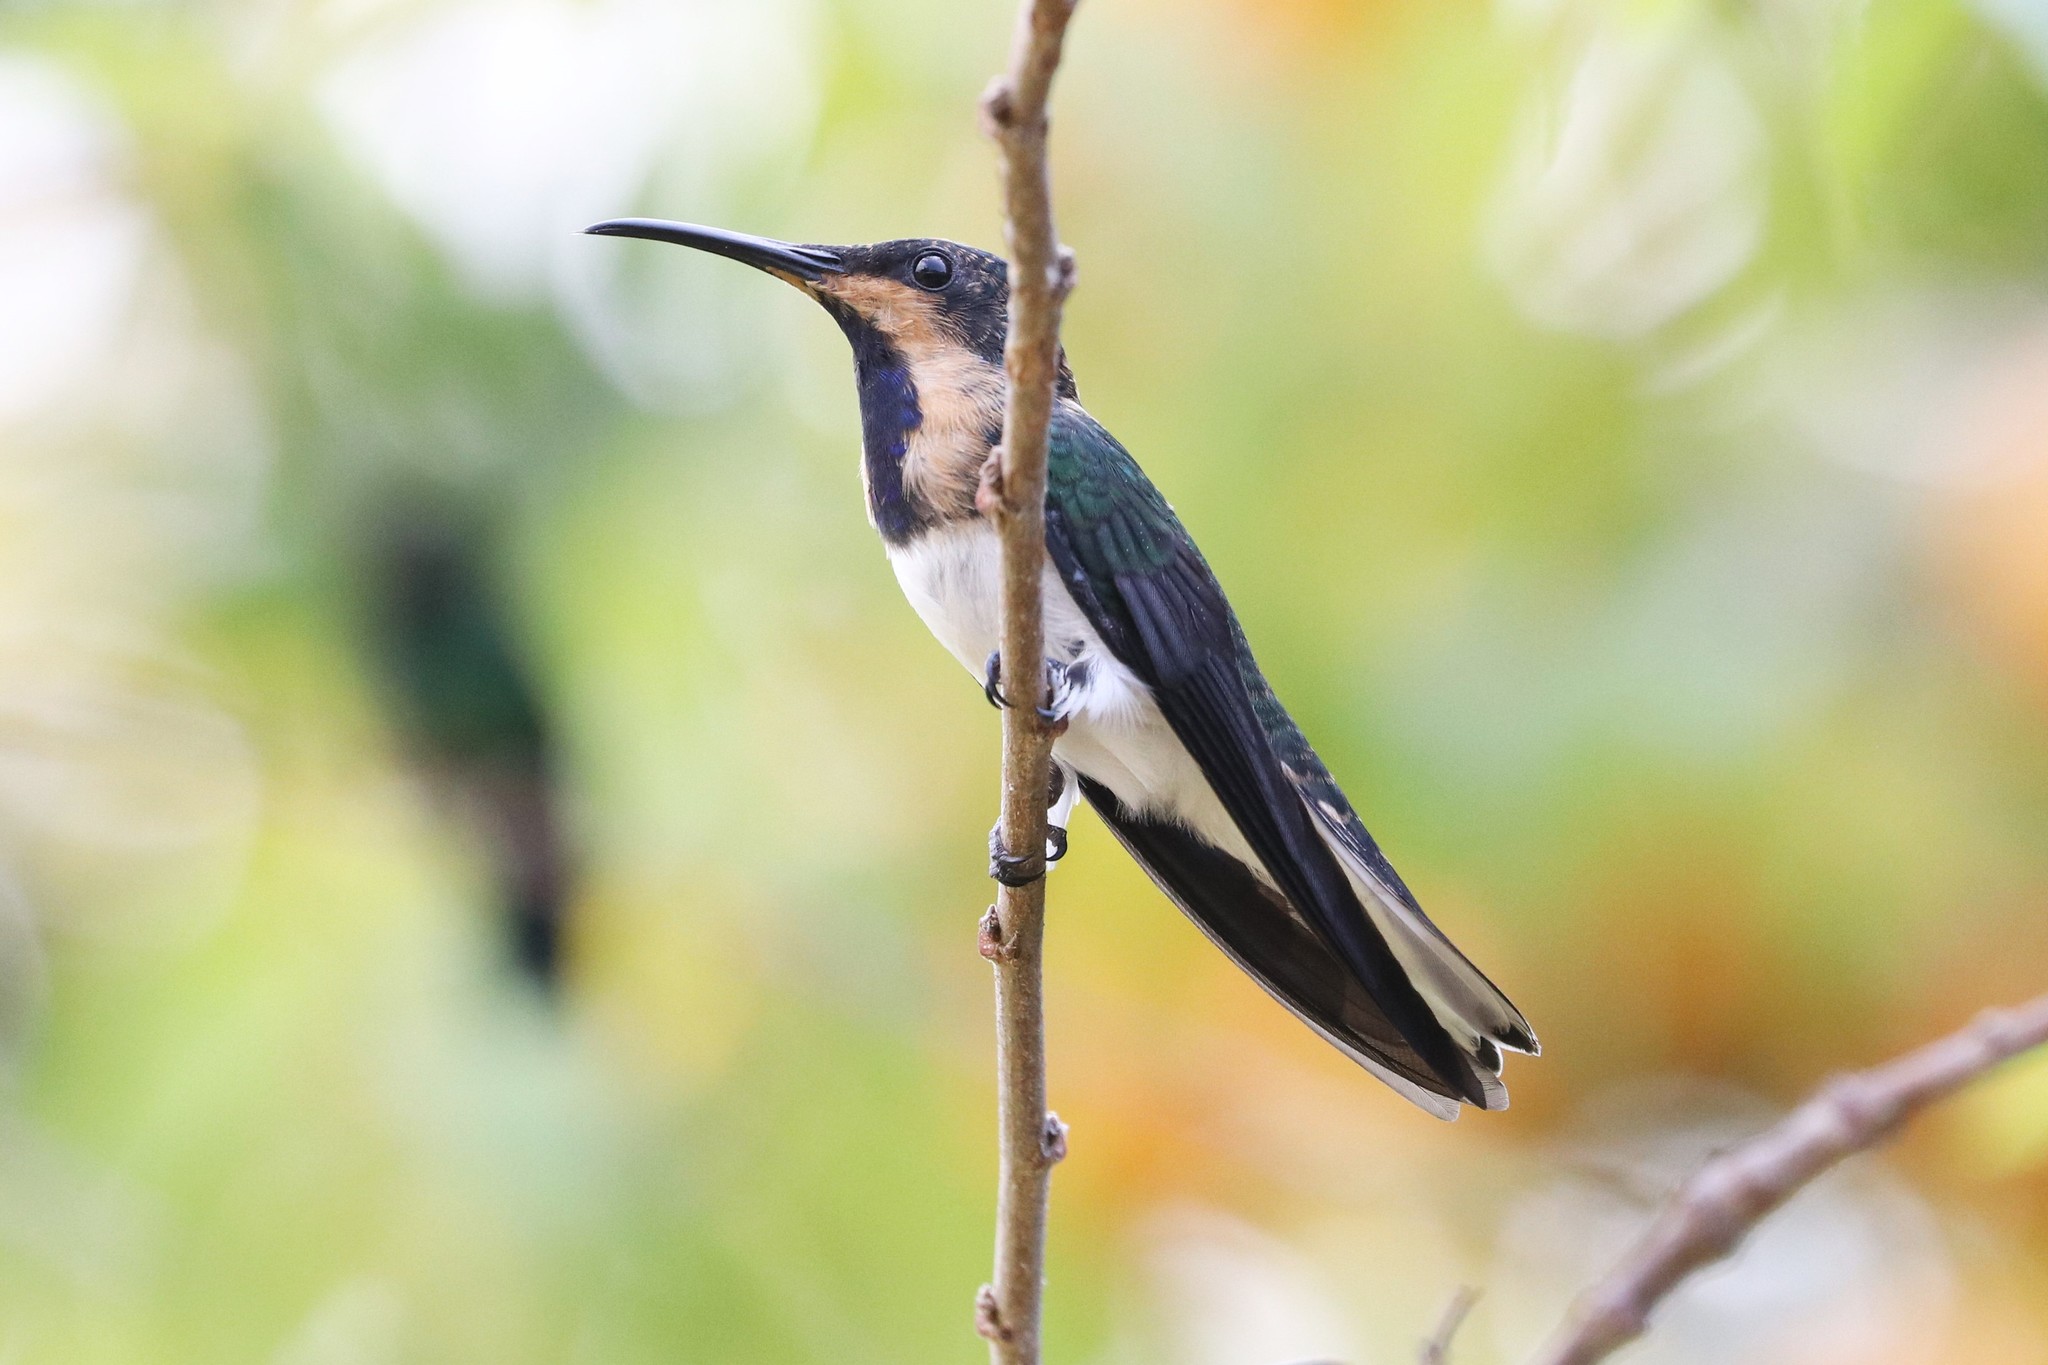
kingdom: Animalia
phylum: Chordata
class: Aves
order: Apodiformes
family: Trochilidae
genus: Florisuga
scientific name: Florisuga mellivora
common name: White-necked jacobin
